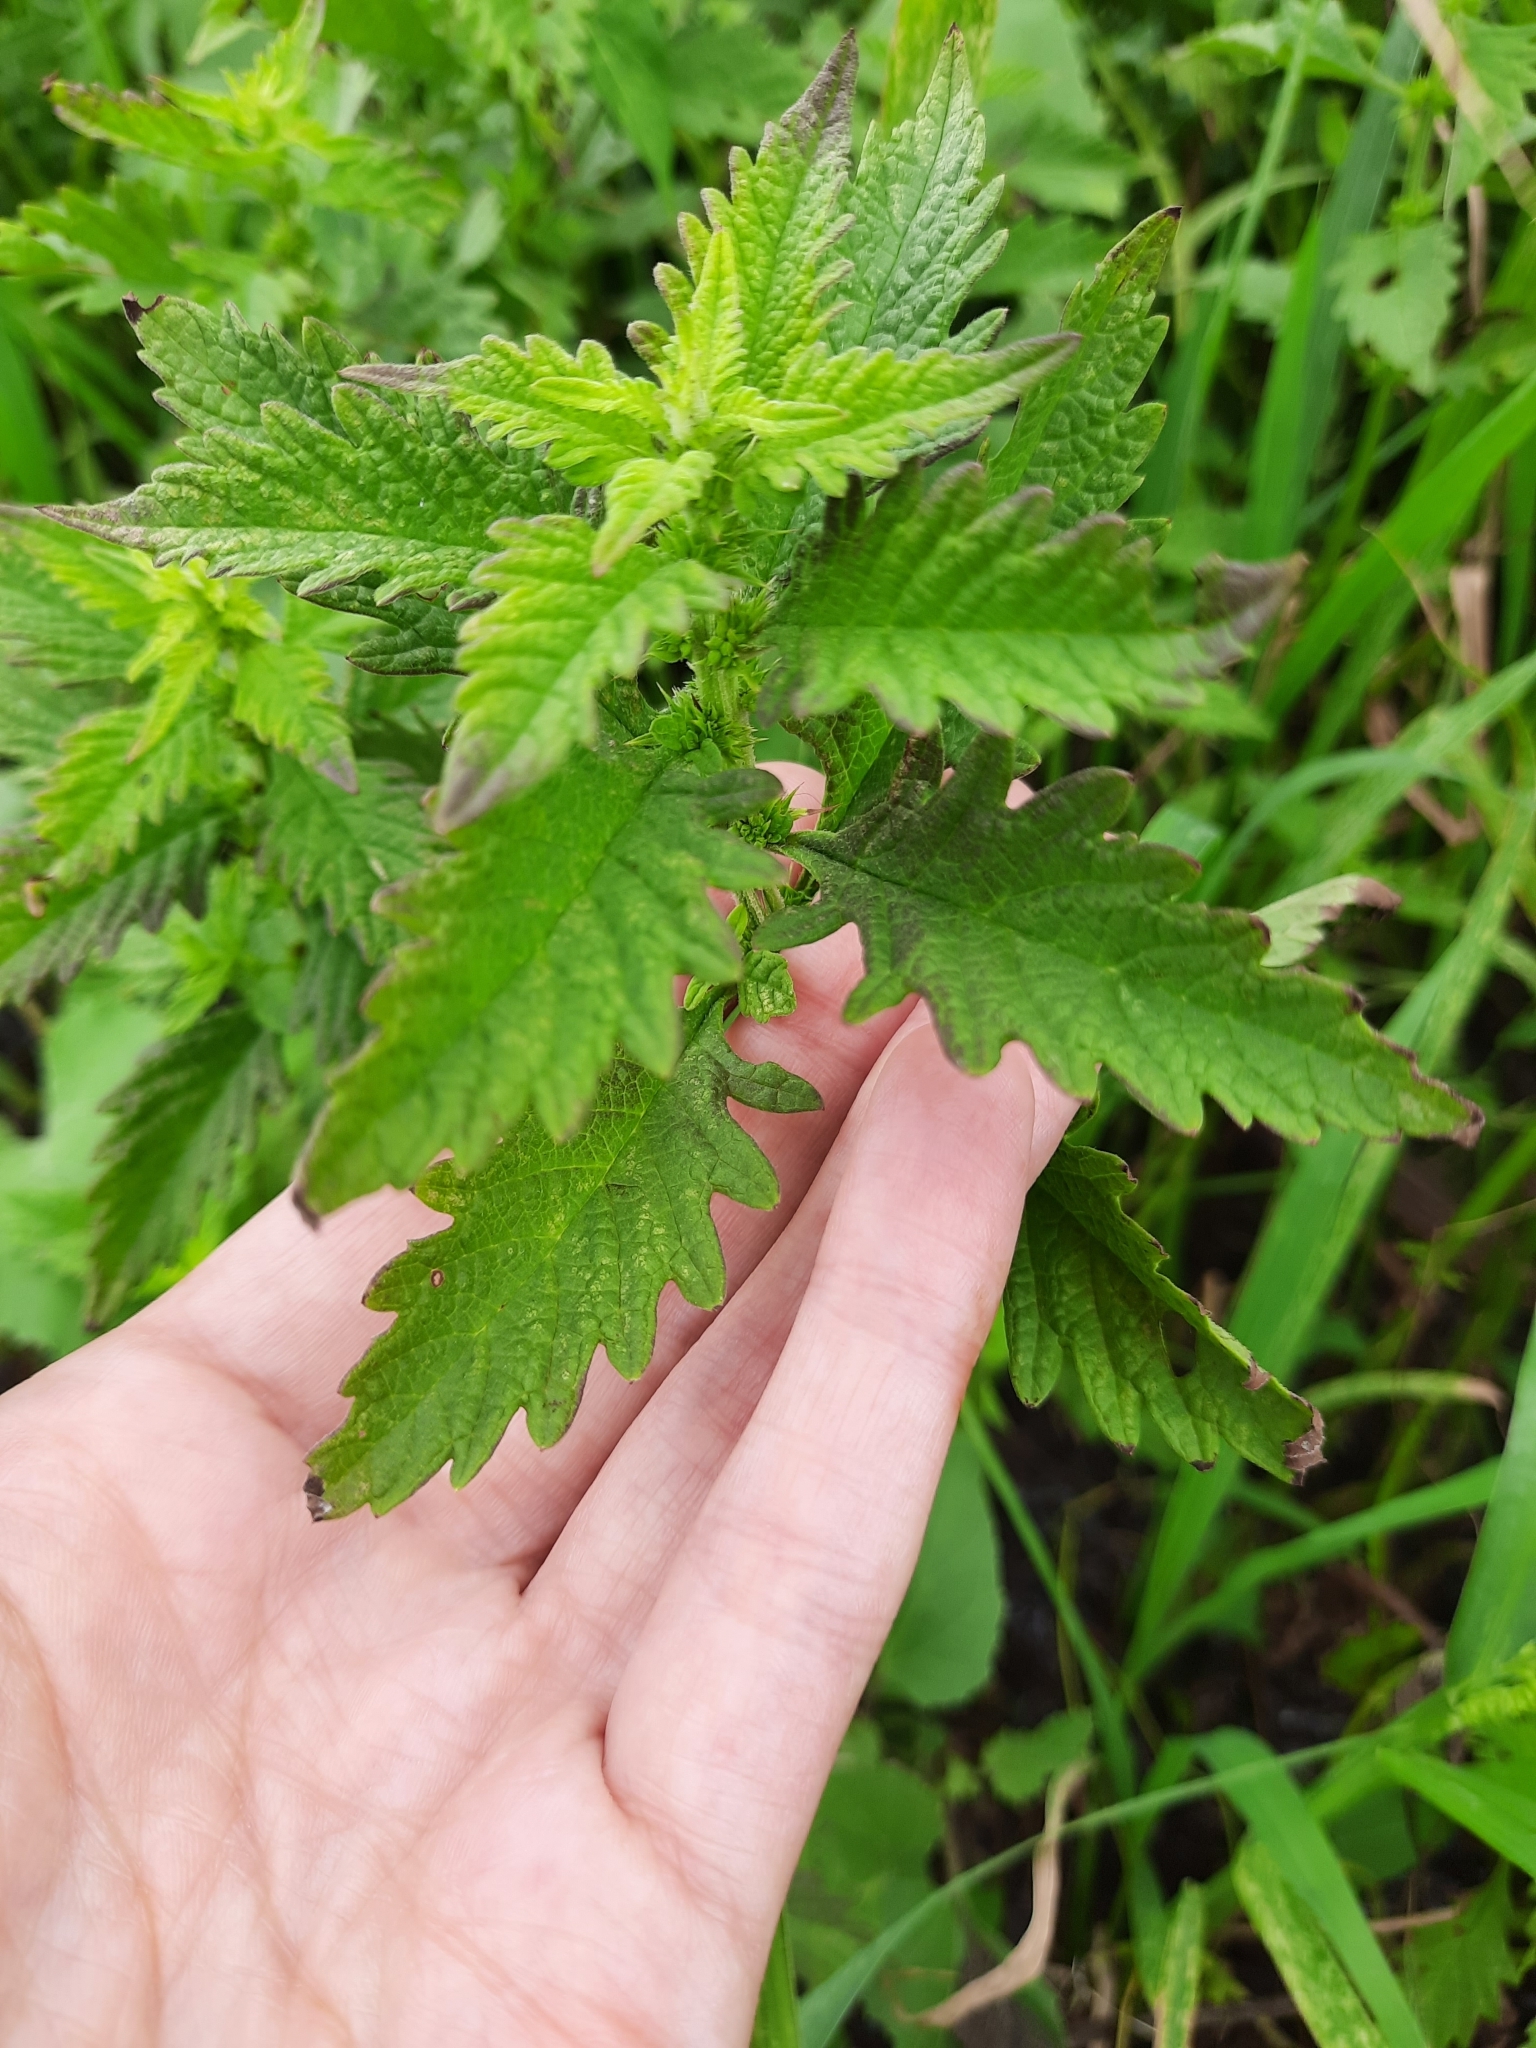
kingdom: Plantae
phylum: Tracheophyta
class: Magnoliopsida
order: Lamiales
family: Lamiaceae
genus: Lycopus
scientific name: Lycopus europaeus
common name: European bugleweed
